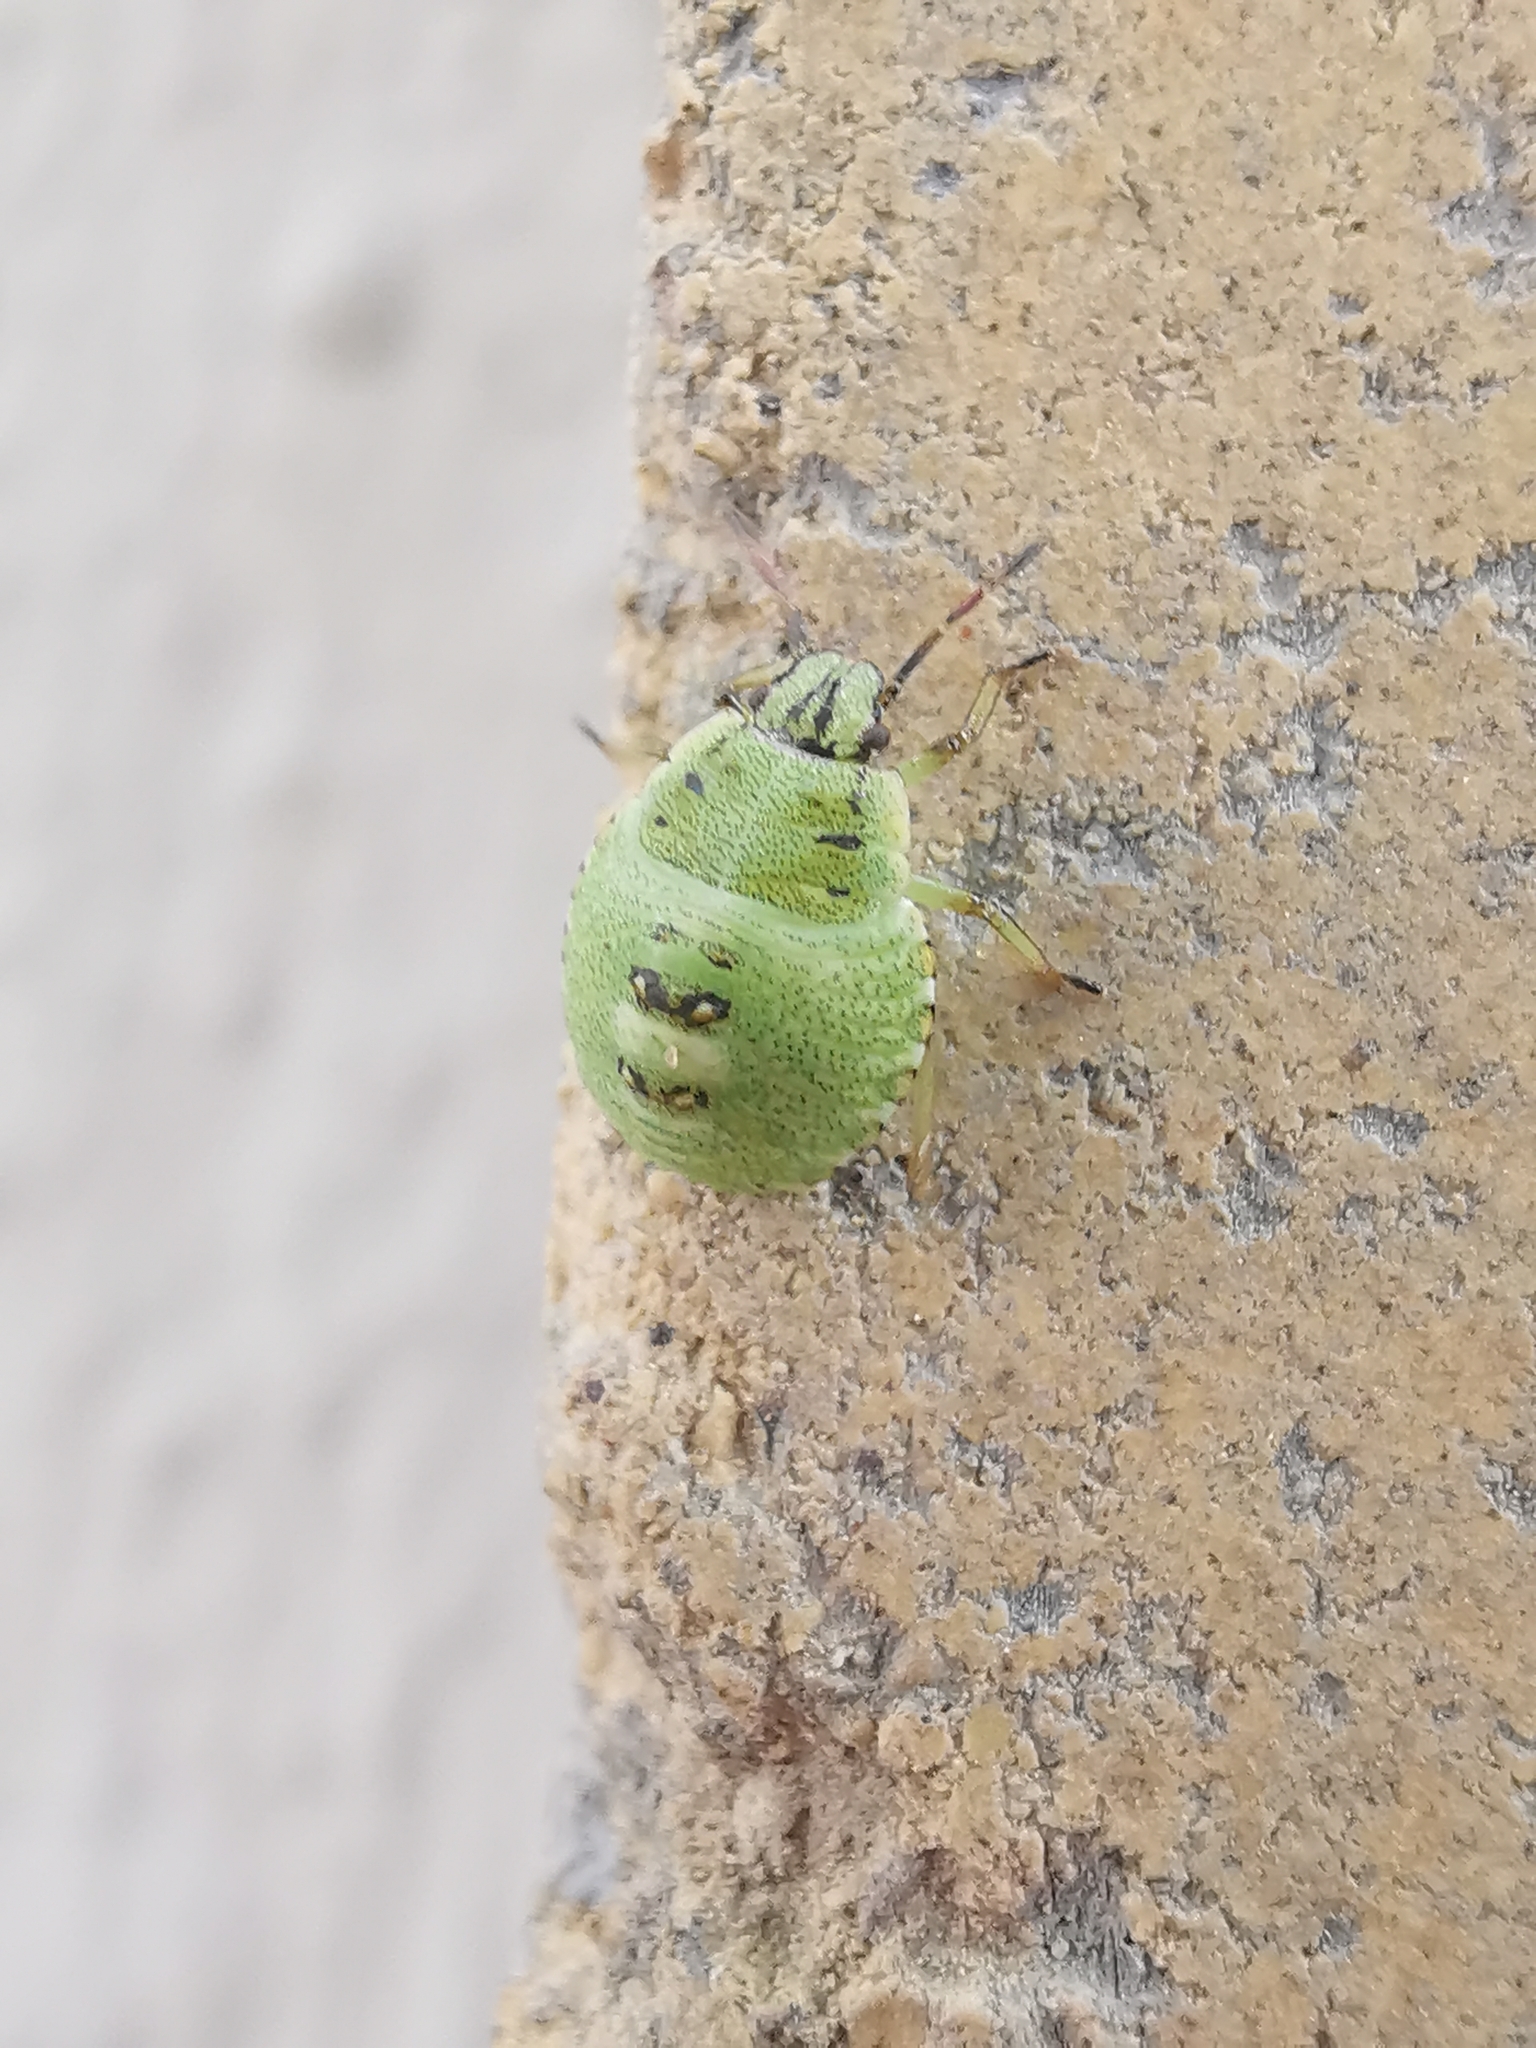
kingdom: Animalia
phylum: Arthropoda
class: Insecta
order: Hemiptera
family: Pentatomidae
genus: Palomena
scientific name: Palomena prasina
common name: Green shieldbug
